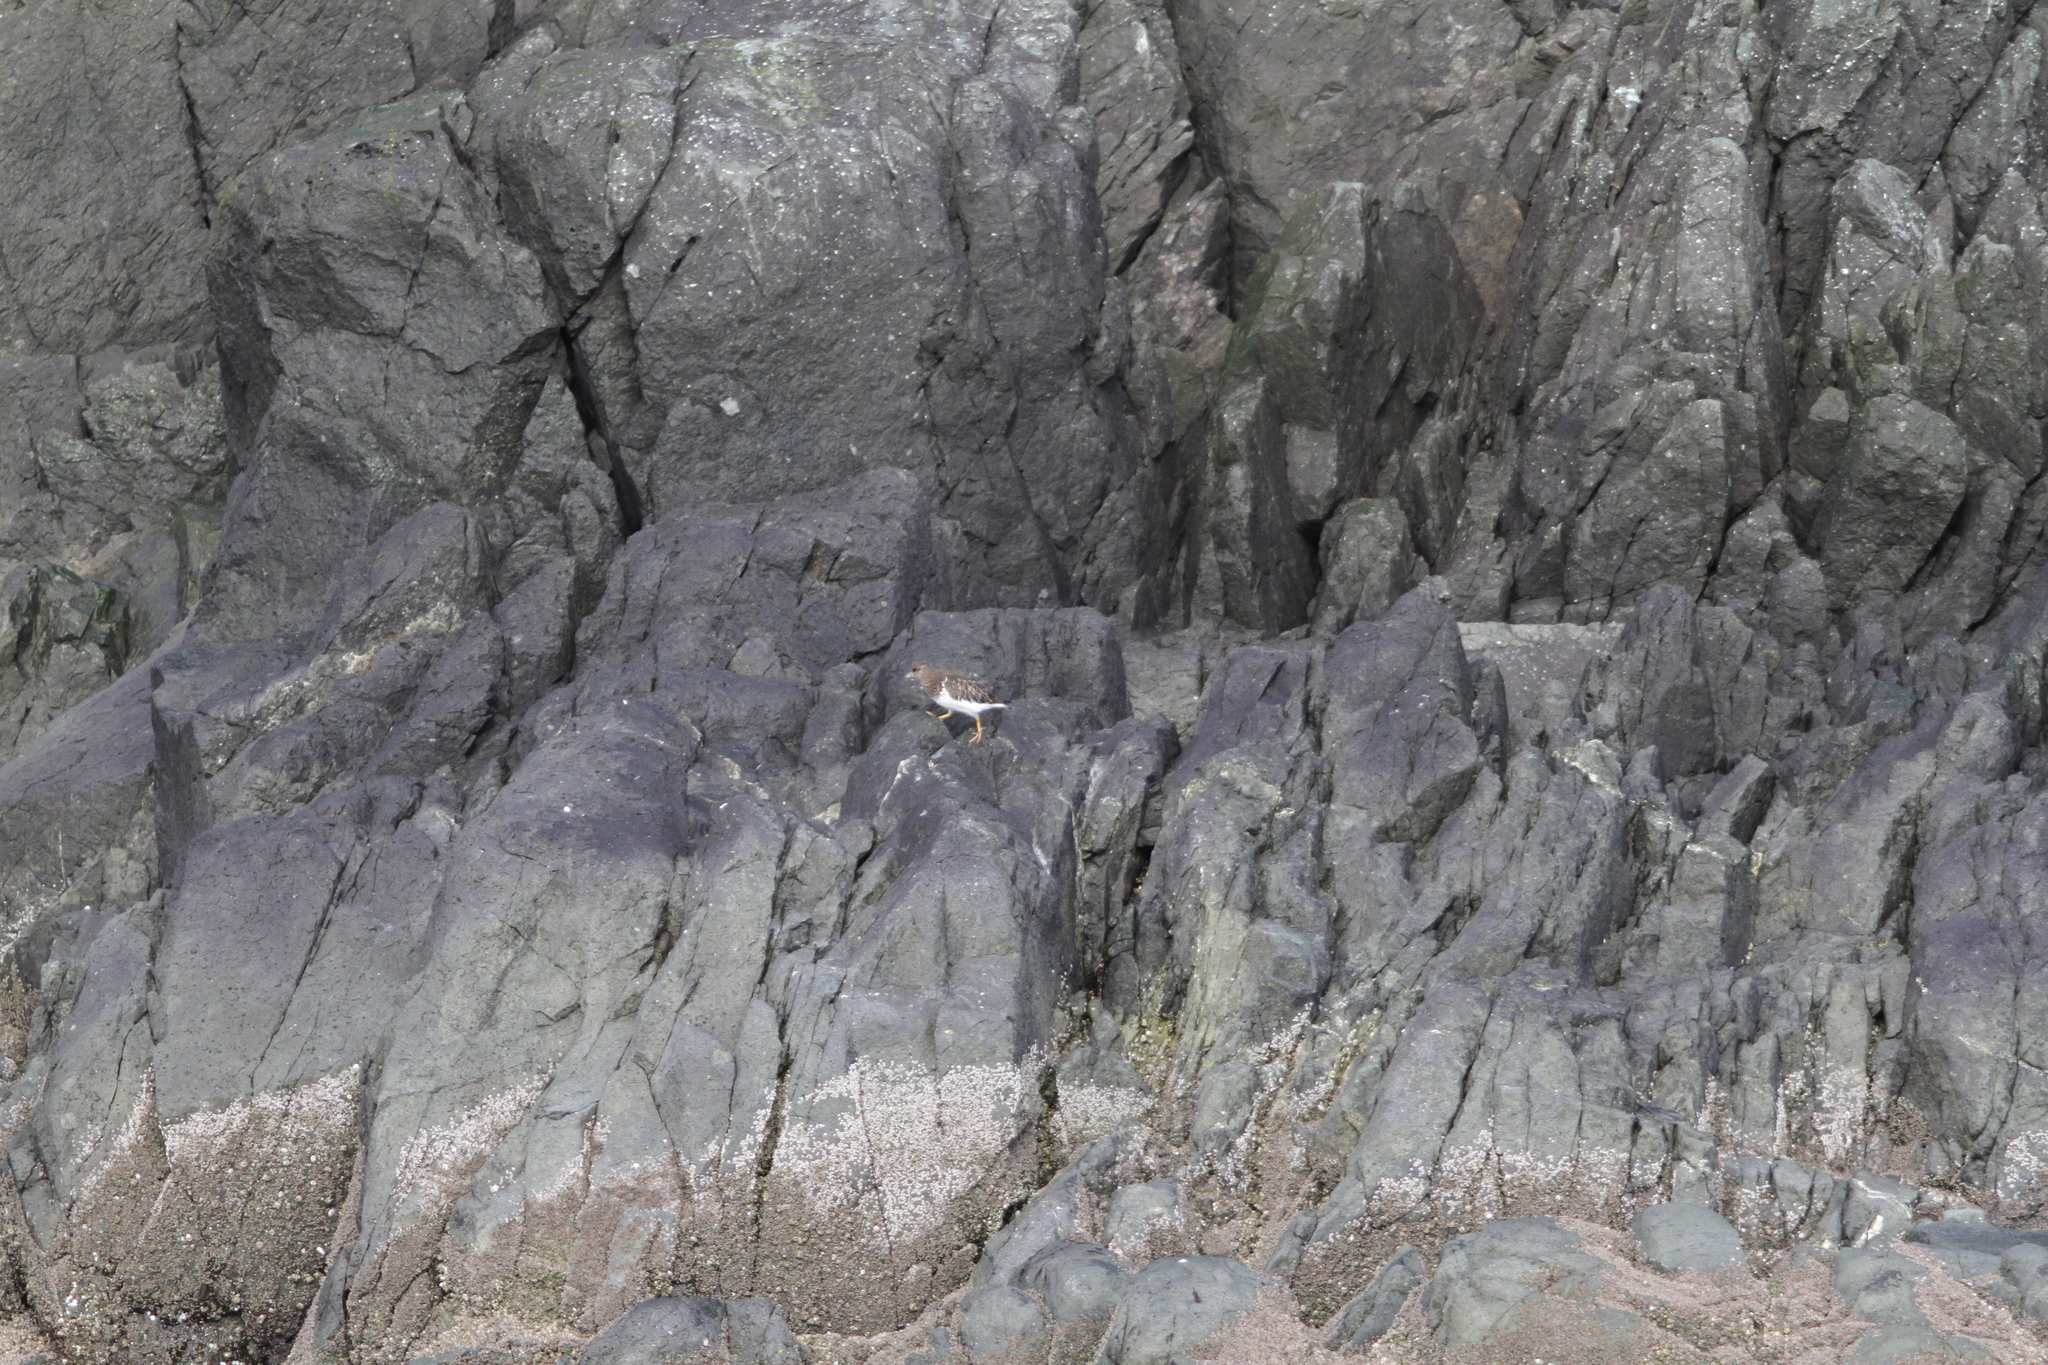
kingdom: Animalia
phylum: Chordata
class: Aves
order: Charadriiformes
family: Scolopacidae
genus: Arenaria
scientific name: Arenaria melanocephala
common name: Black turnstone
